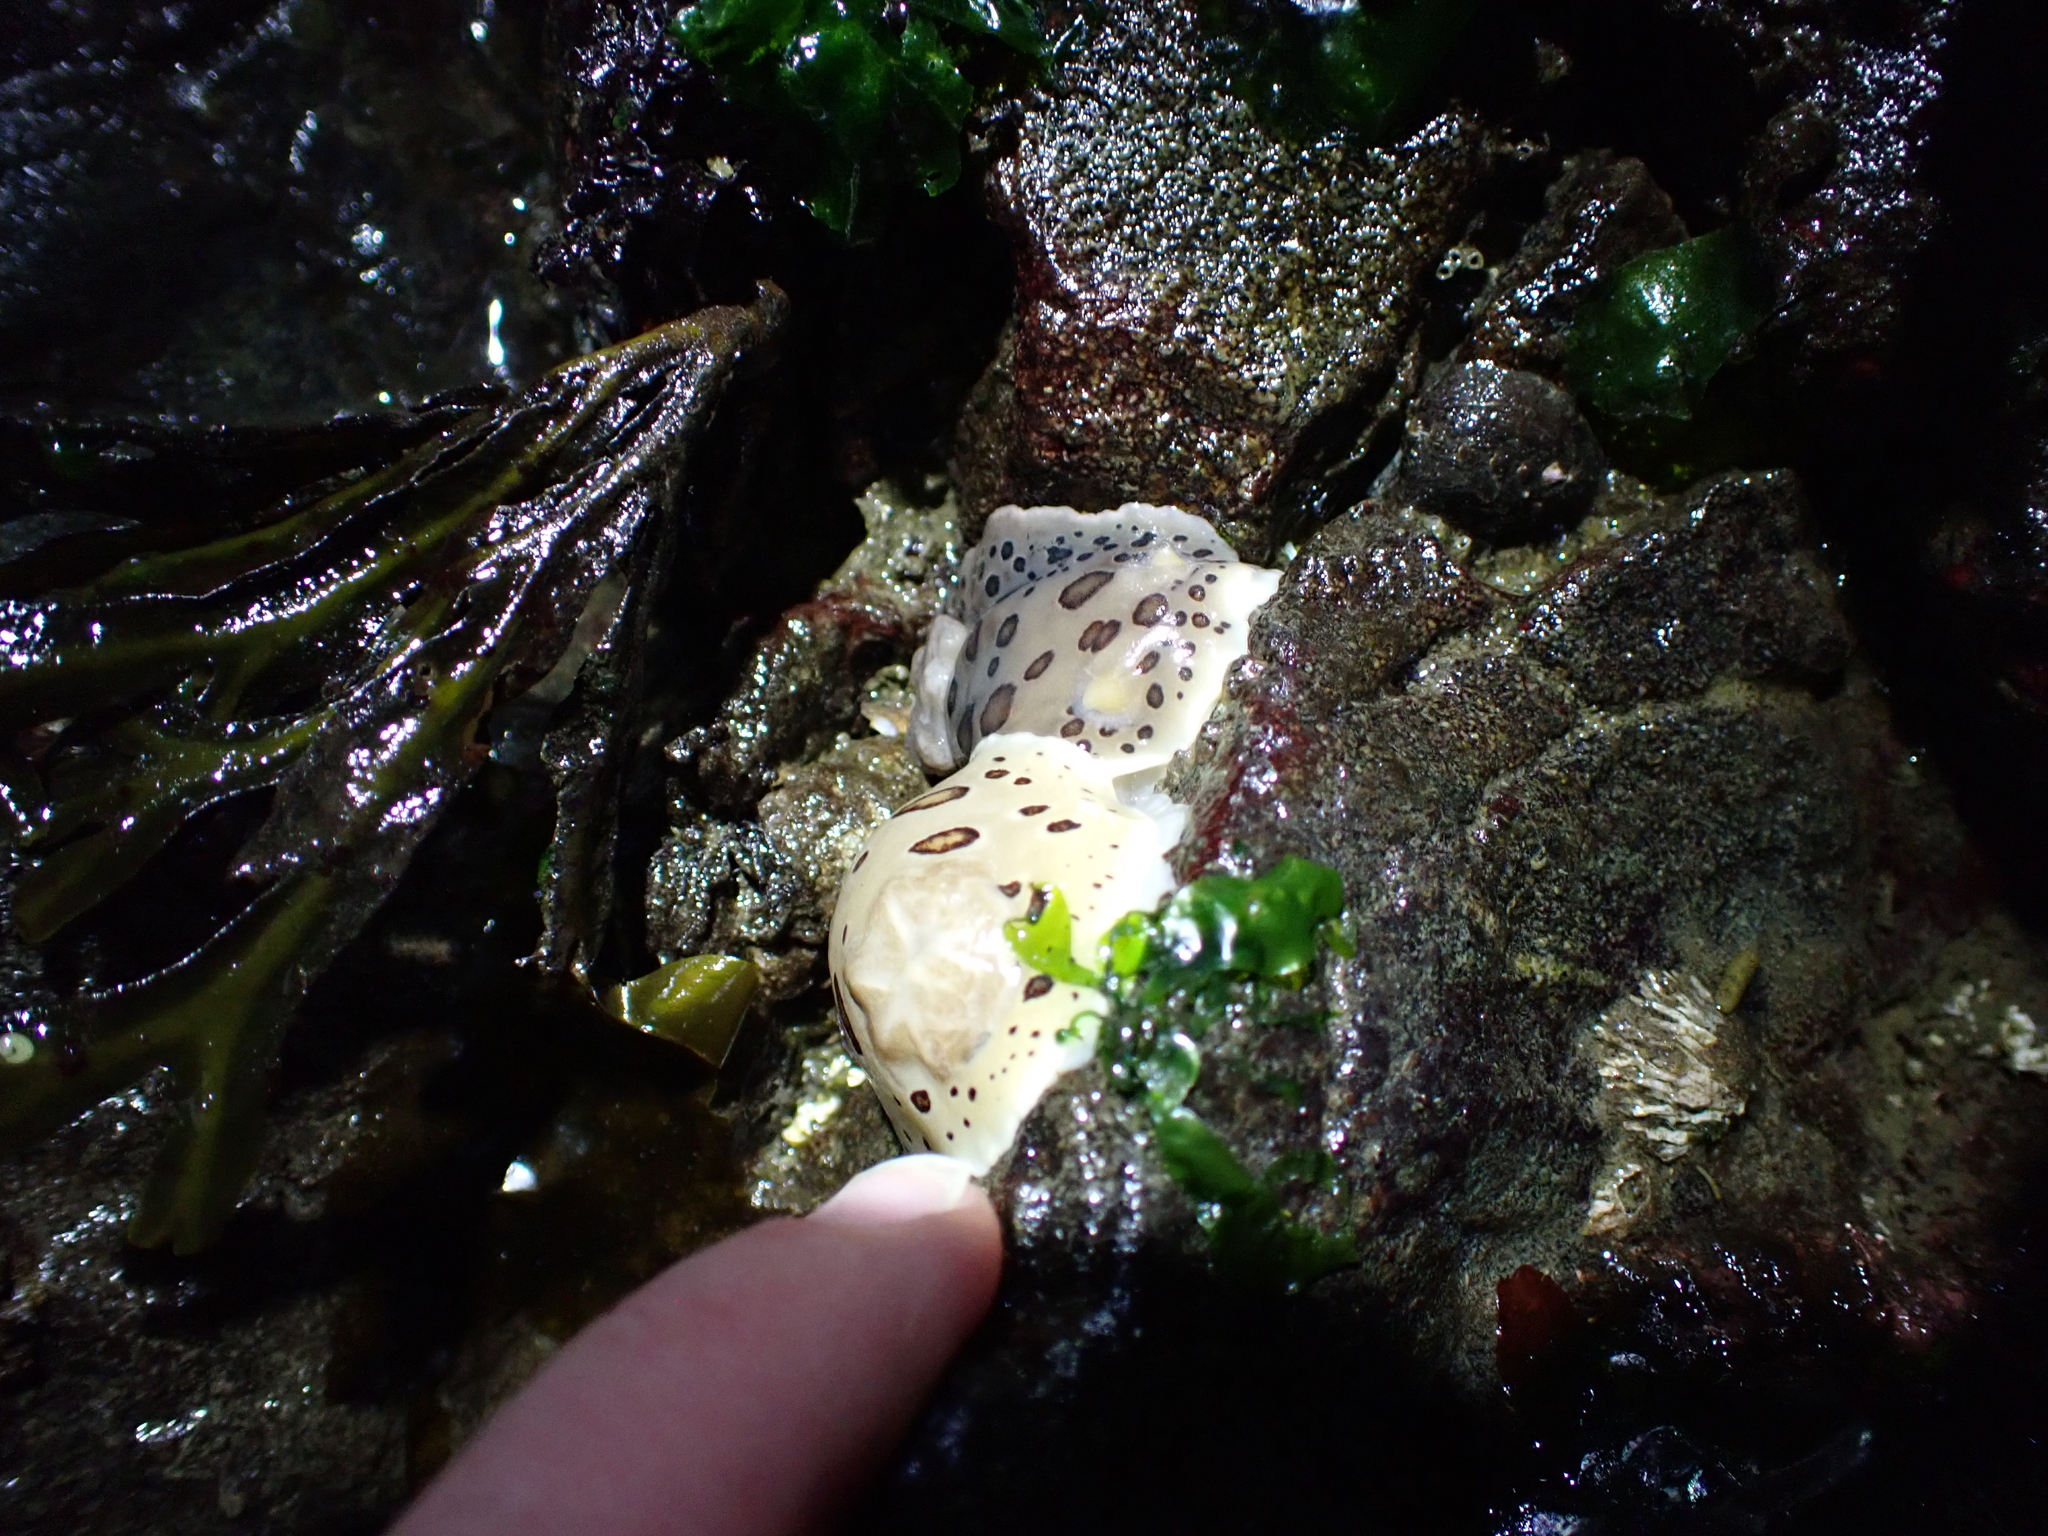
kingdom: Animalia
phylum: Mollusca
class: Gastropoda
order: Nudibranchia
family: Discodorididae
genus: Diaulula
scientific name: Diaulula odonoghuei
